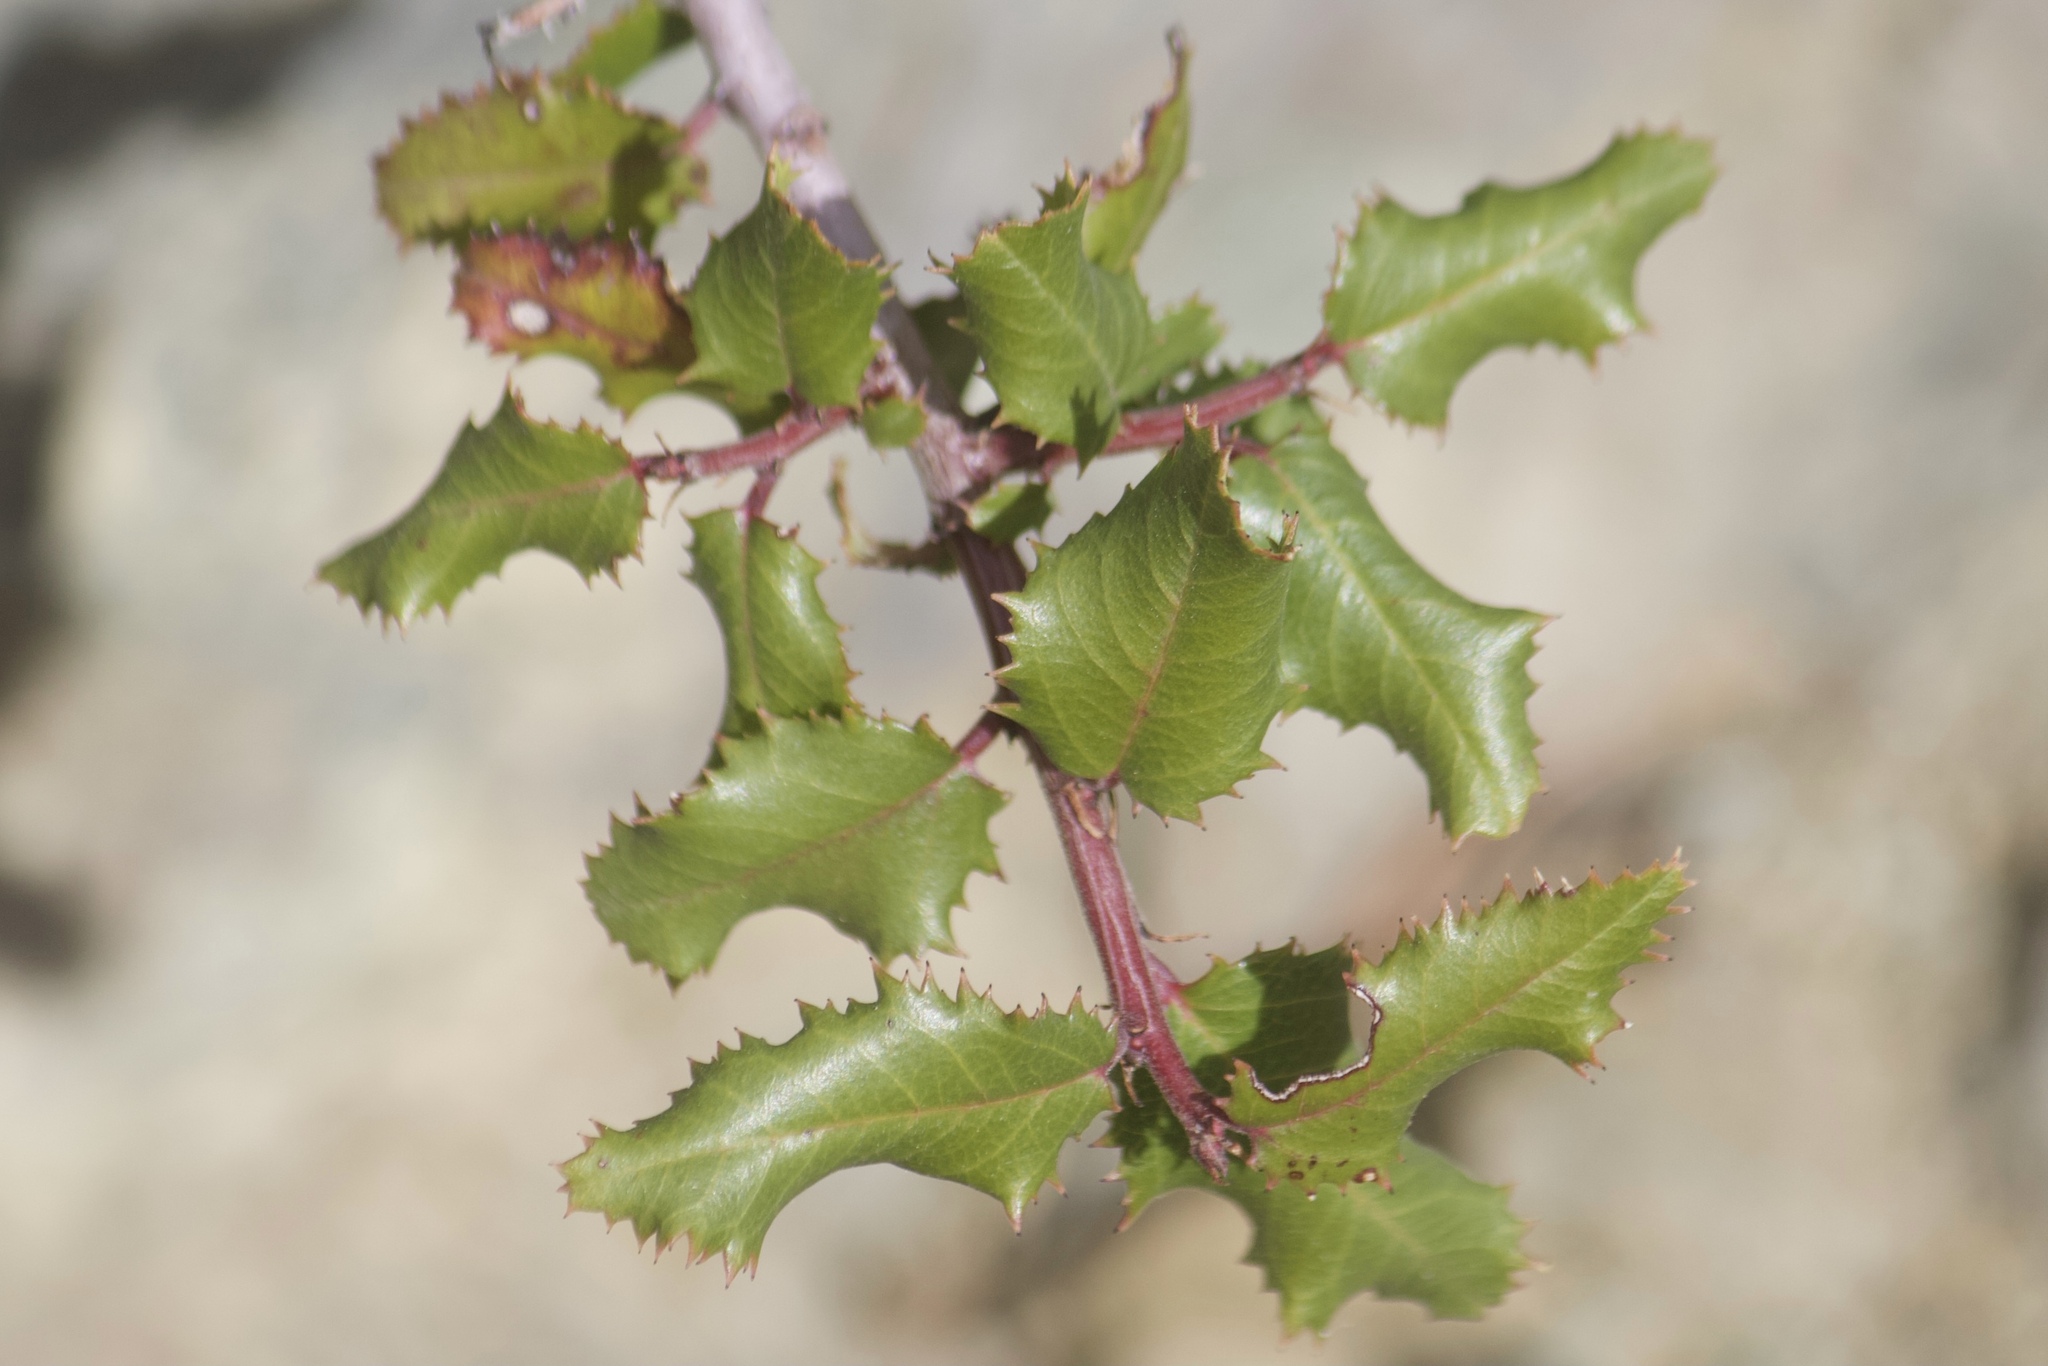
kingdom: Plantae
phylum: Tracheophyta
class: Magnoliopsida
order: Rosales
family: Rhamnaceae
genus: Endotropis
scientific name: Endotropis crocea
